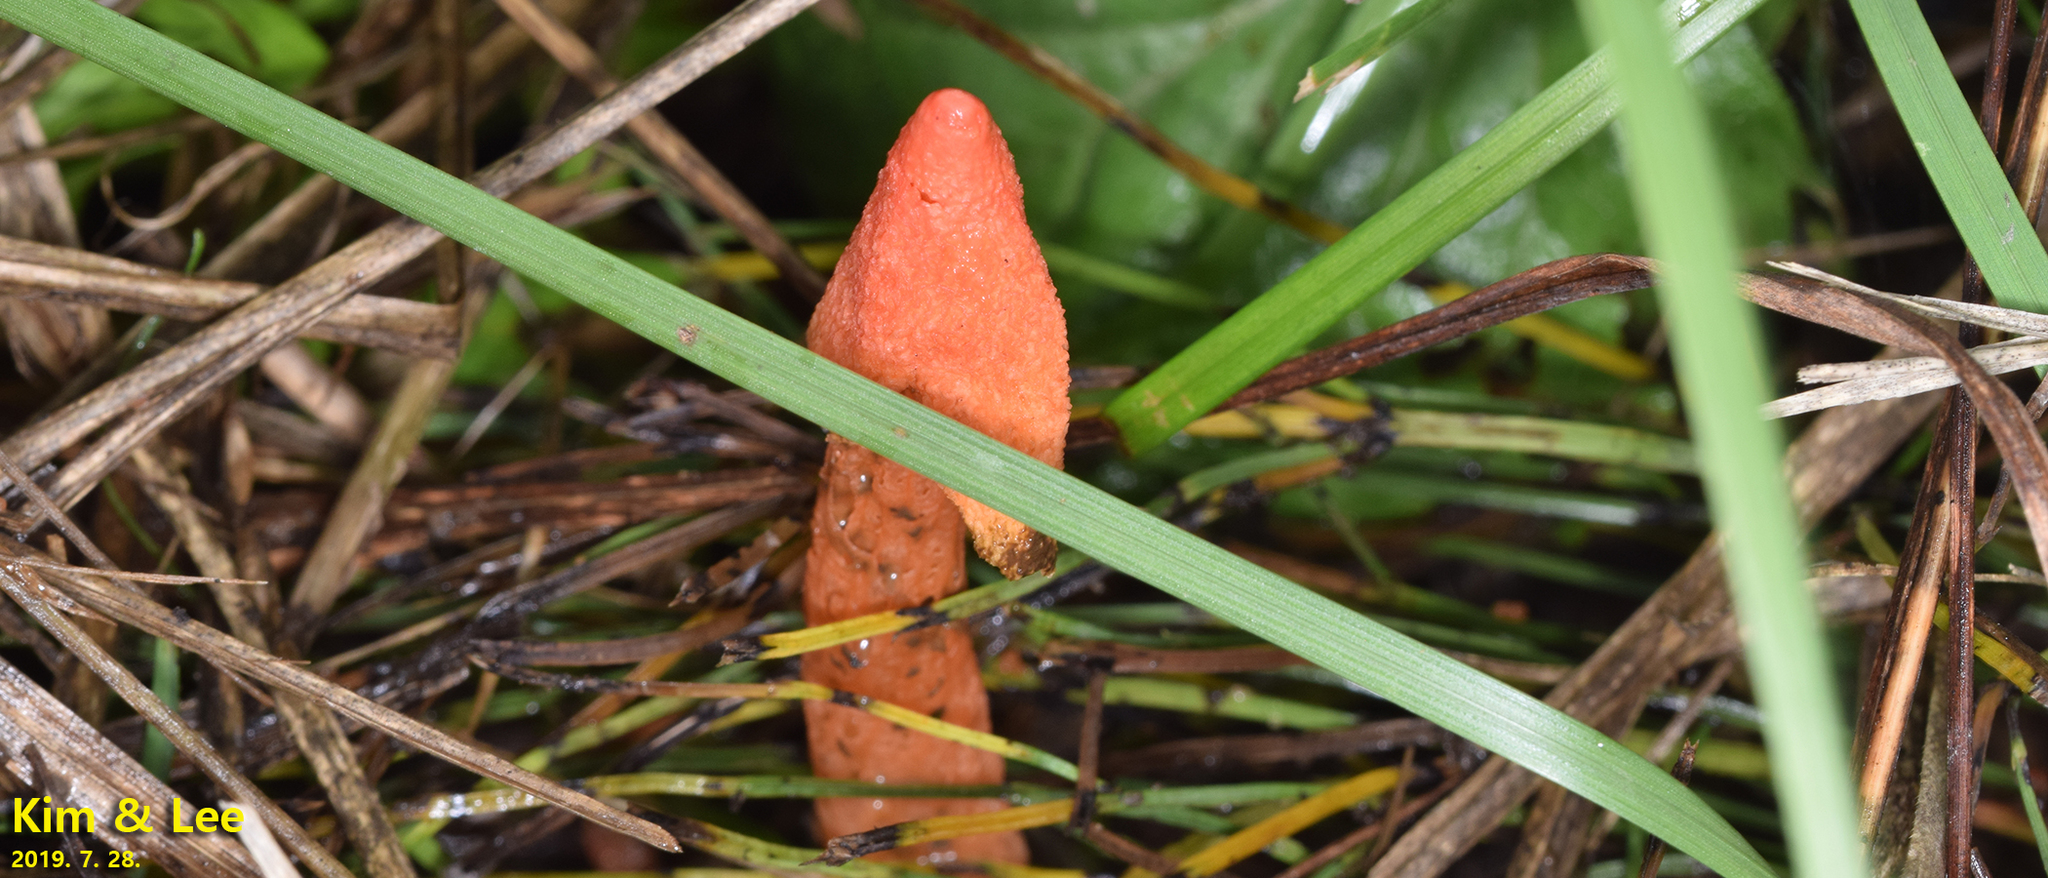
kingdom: Fungi
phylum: Basidiomycota
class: Agaricomycetes
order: Phallales
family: Phallaceae
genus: Phallus
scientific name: Phallus rugulosus
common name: Wrinkly stinkhorn
